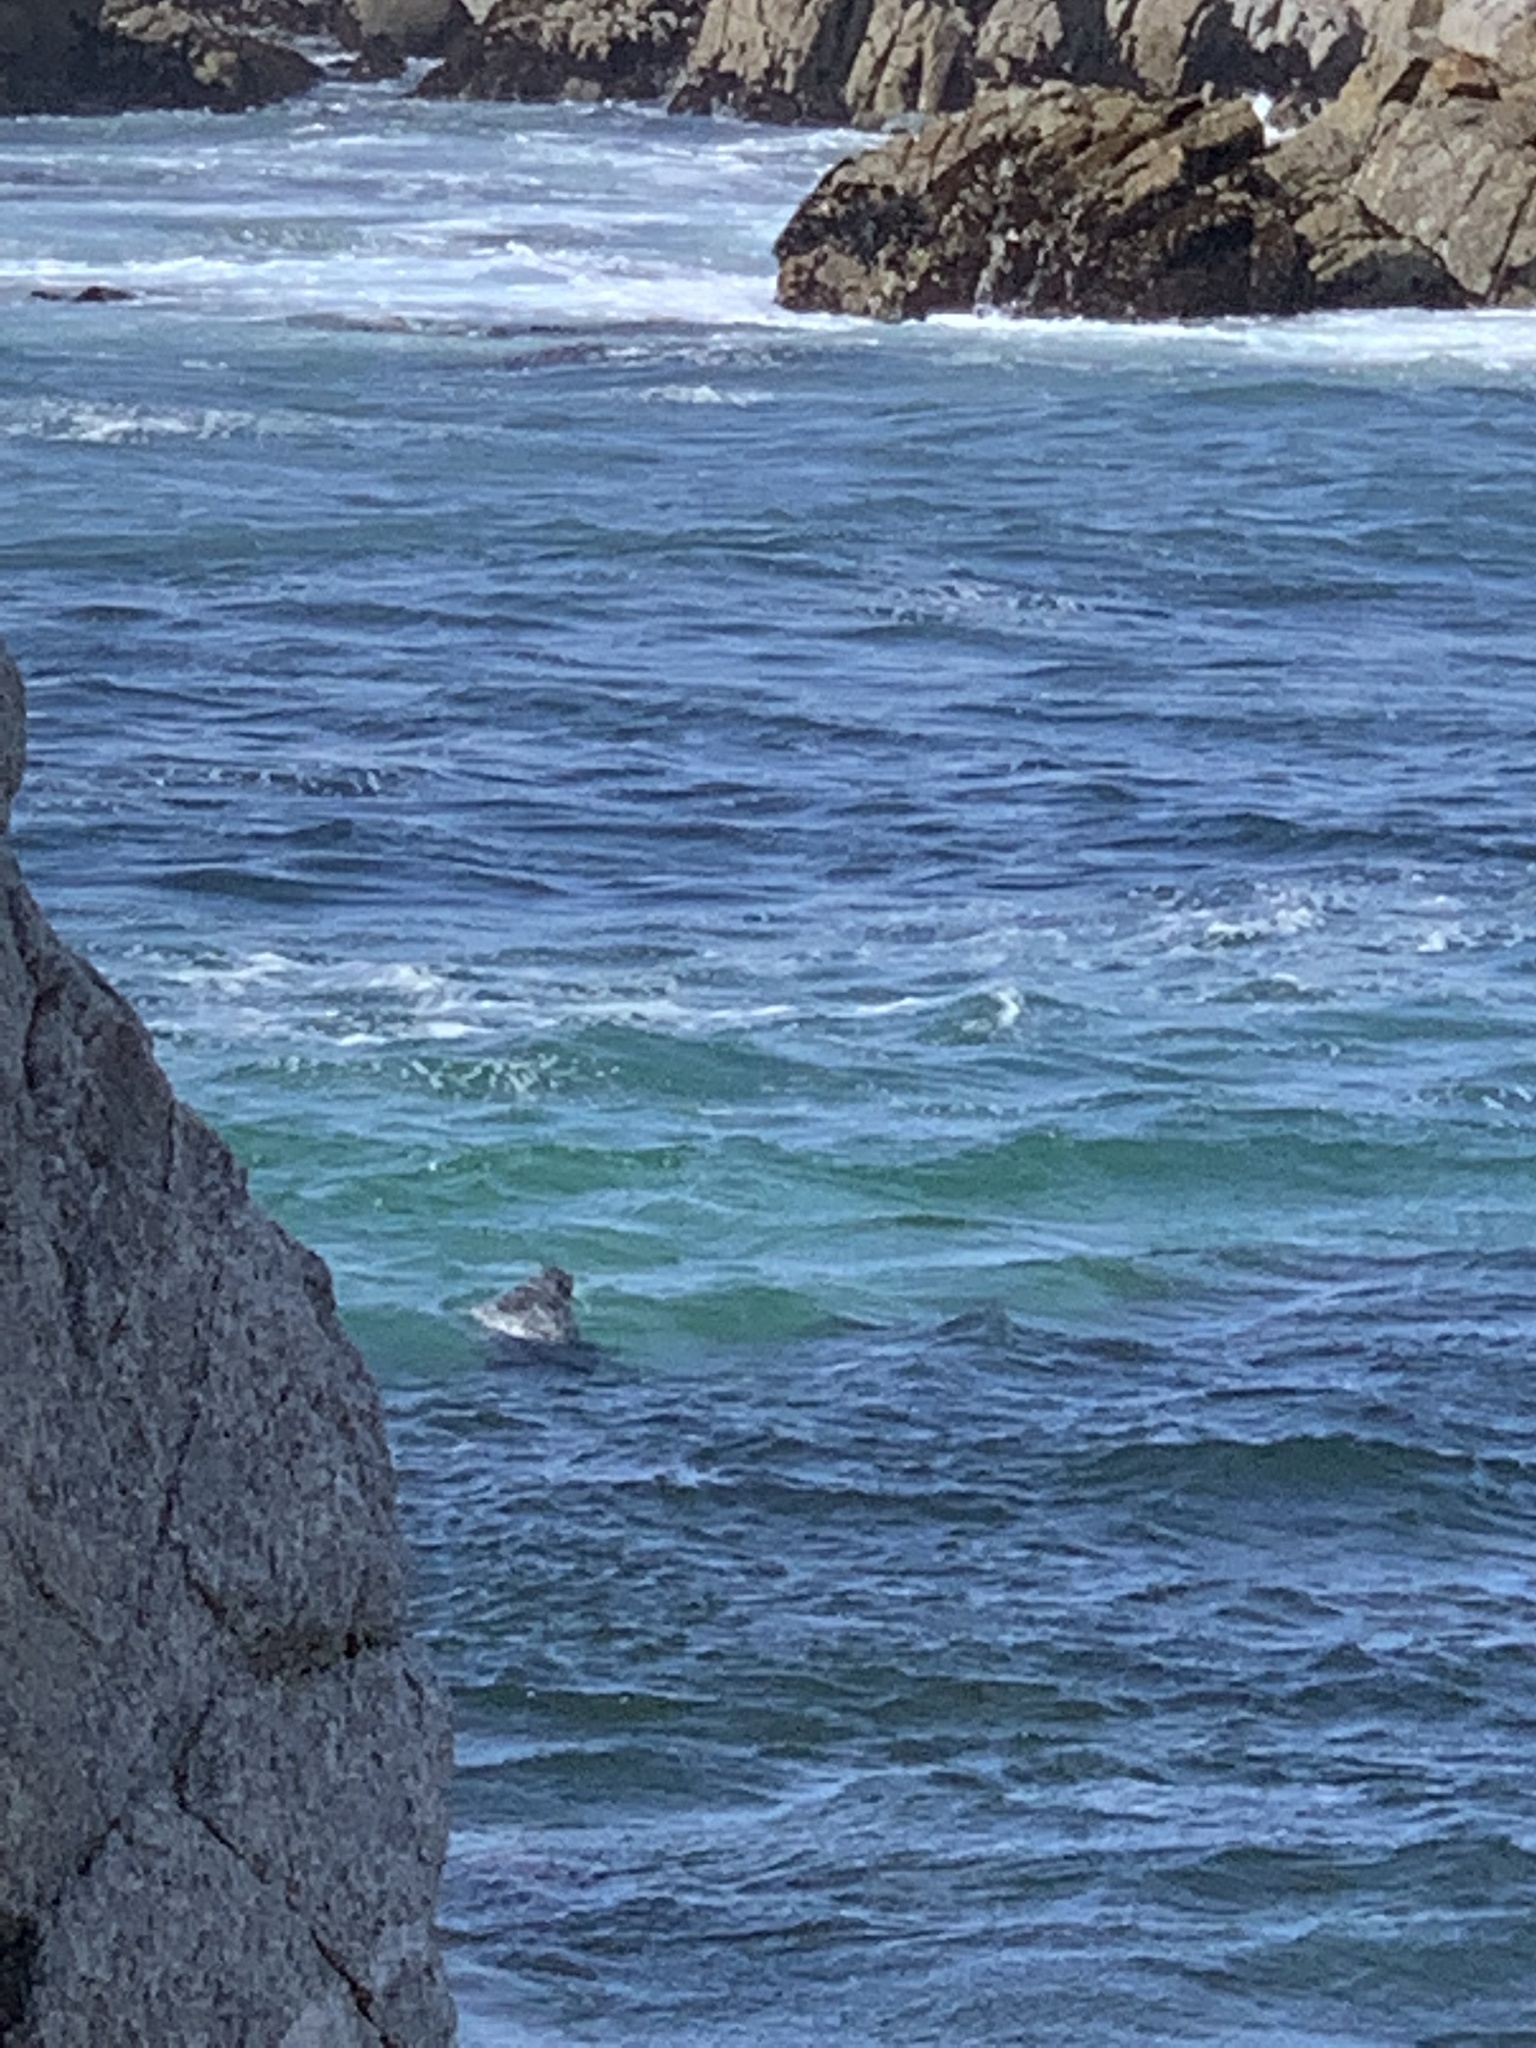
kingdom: Animalia
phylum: Chordata
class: Mammalia
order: Carnivora
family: Phocidae
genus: Phoca
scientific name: Phoca vitulina
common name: Harbor seal
